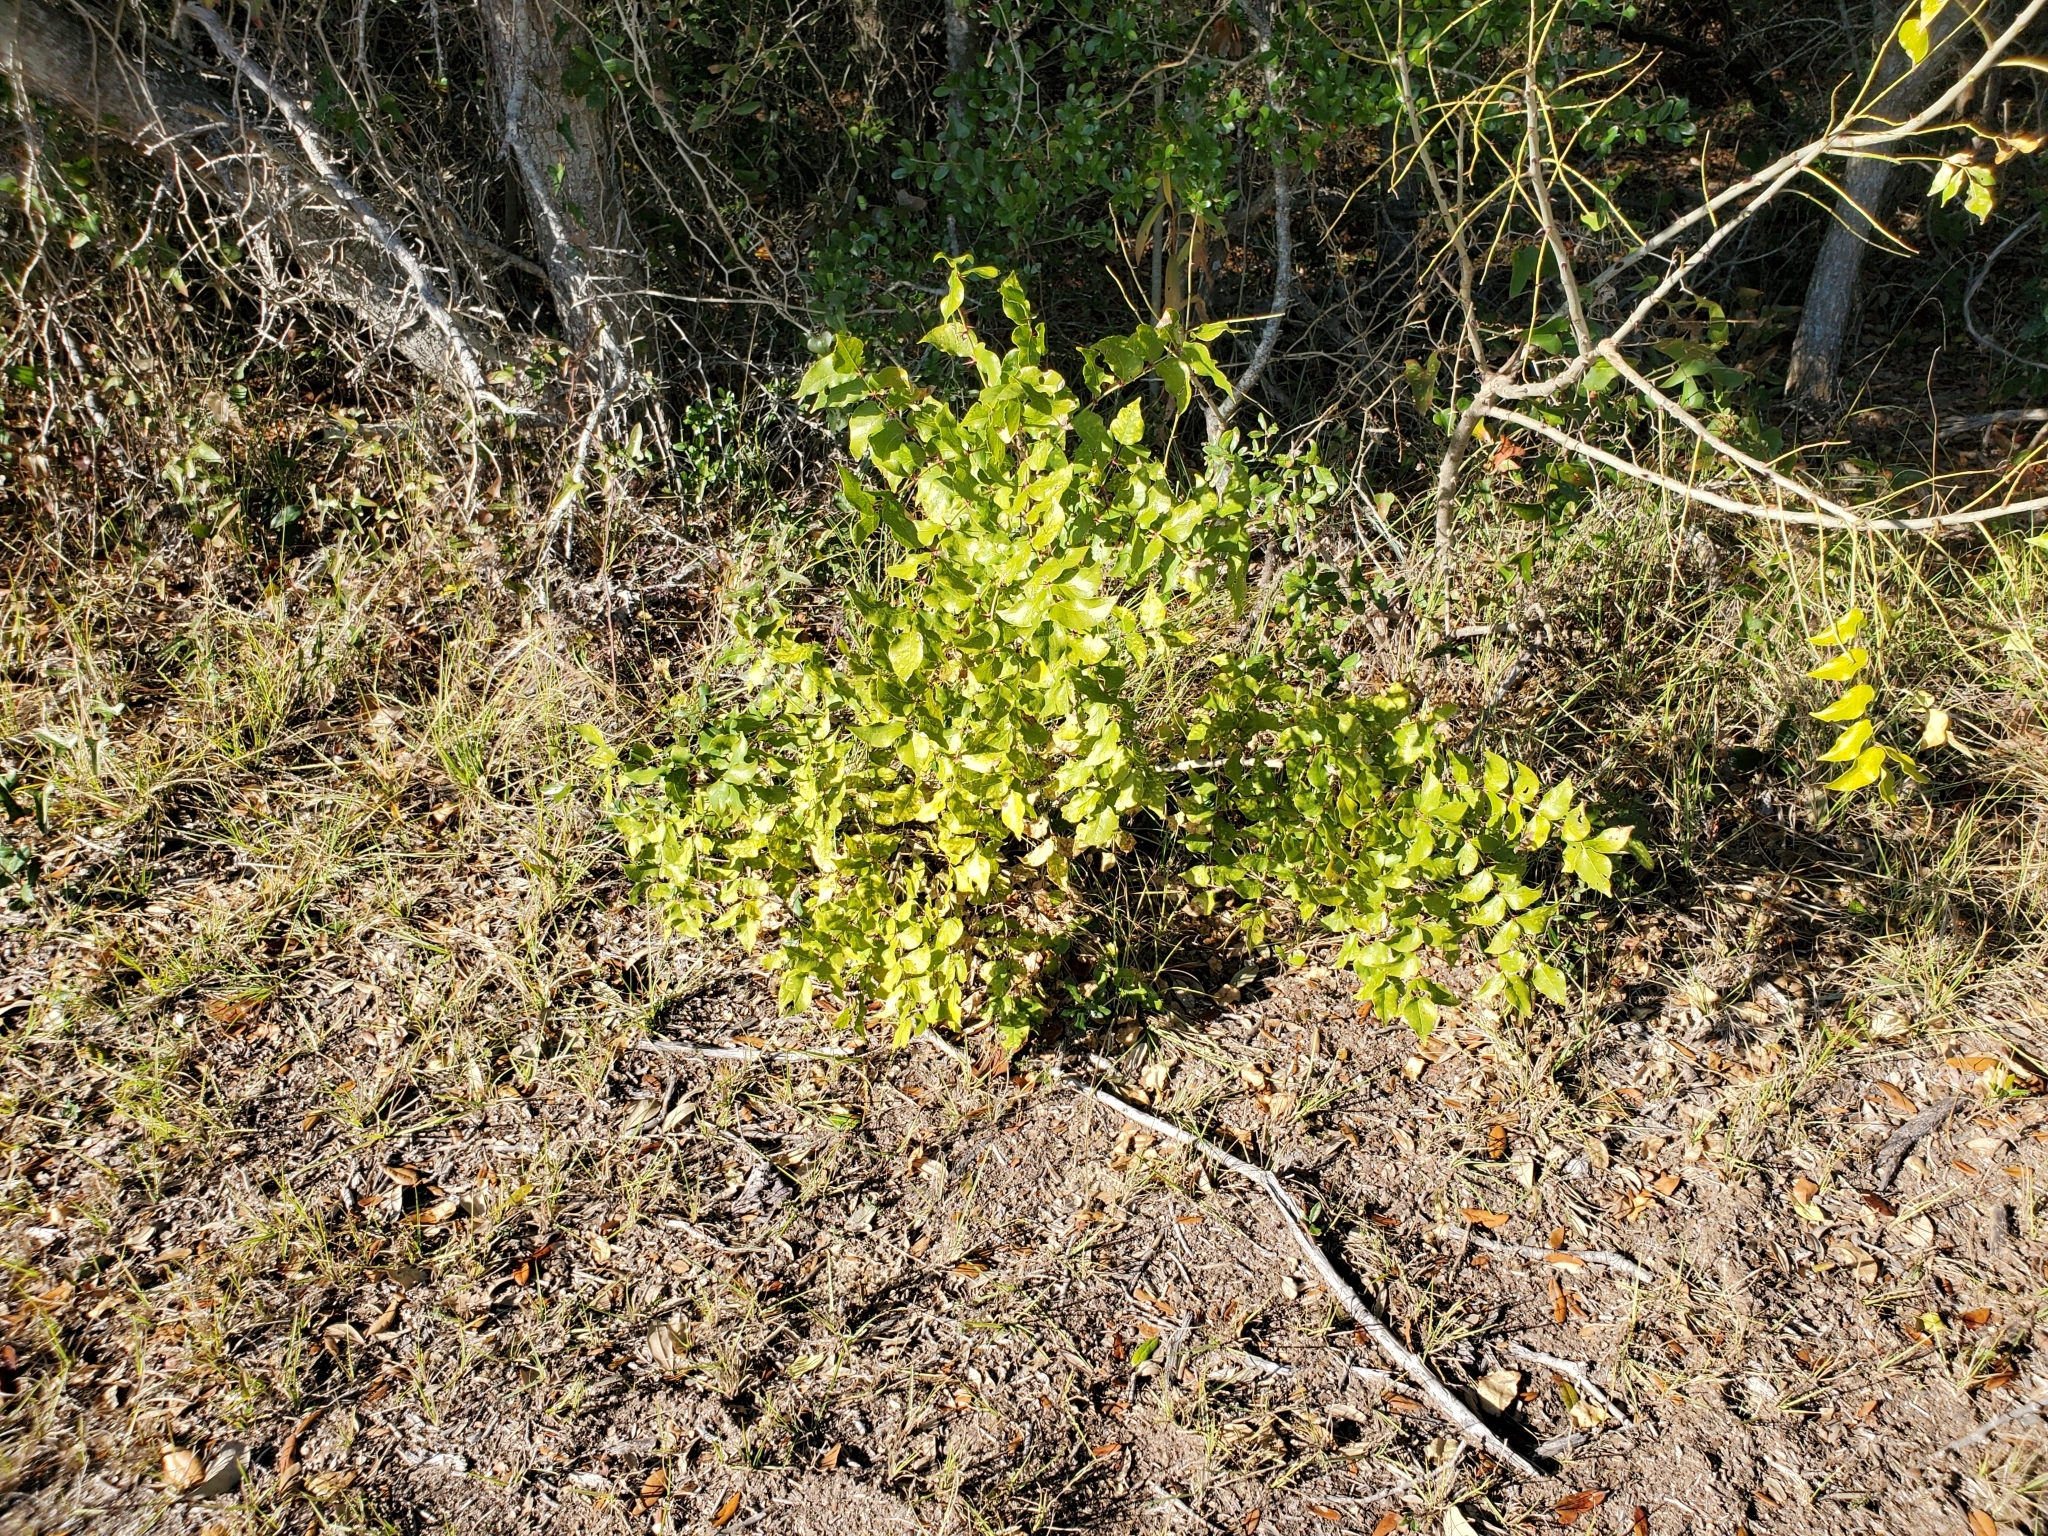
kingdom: Plantae
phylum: Tracheophyta
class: Magnoliopsida
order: Sapindales
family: Rutaceae
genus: Zanthoxylum
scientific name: Zanthoxylum clava-herculis
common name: Hercules'-club
